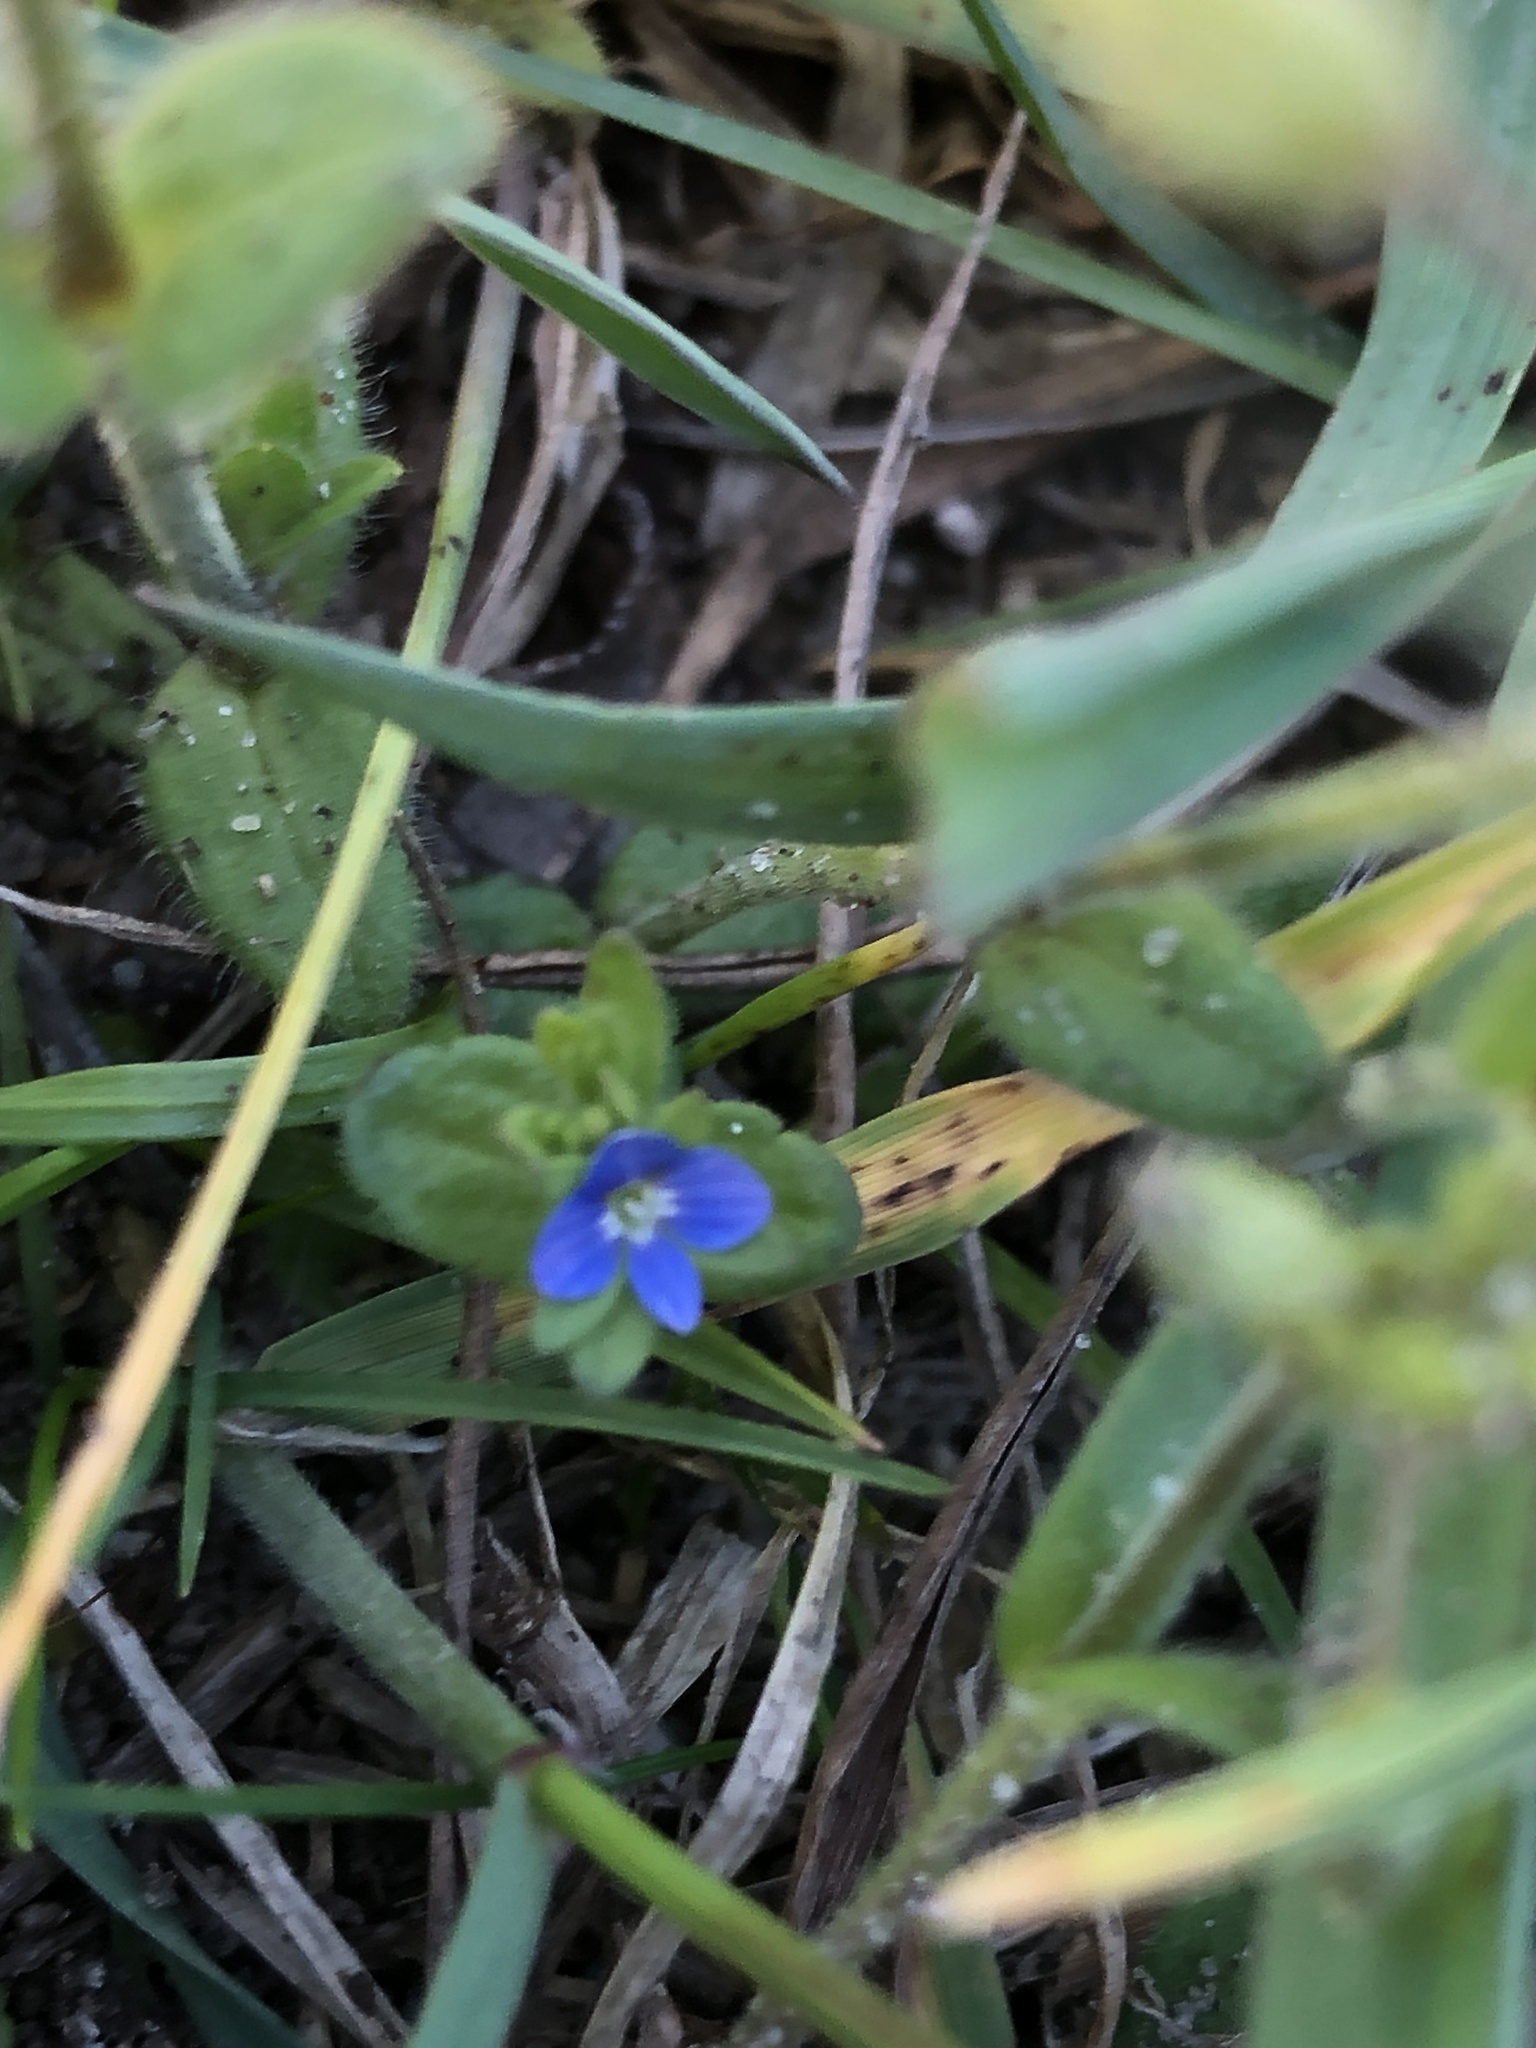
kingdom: Plantae
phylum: Tracheophyta
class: Magnoliopsida
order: Lamiales
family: Plantaginaceae
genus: Veronica
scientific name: Veronica arvensis
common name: Corn speedwell
